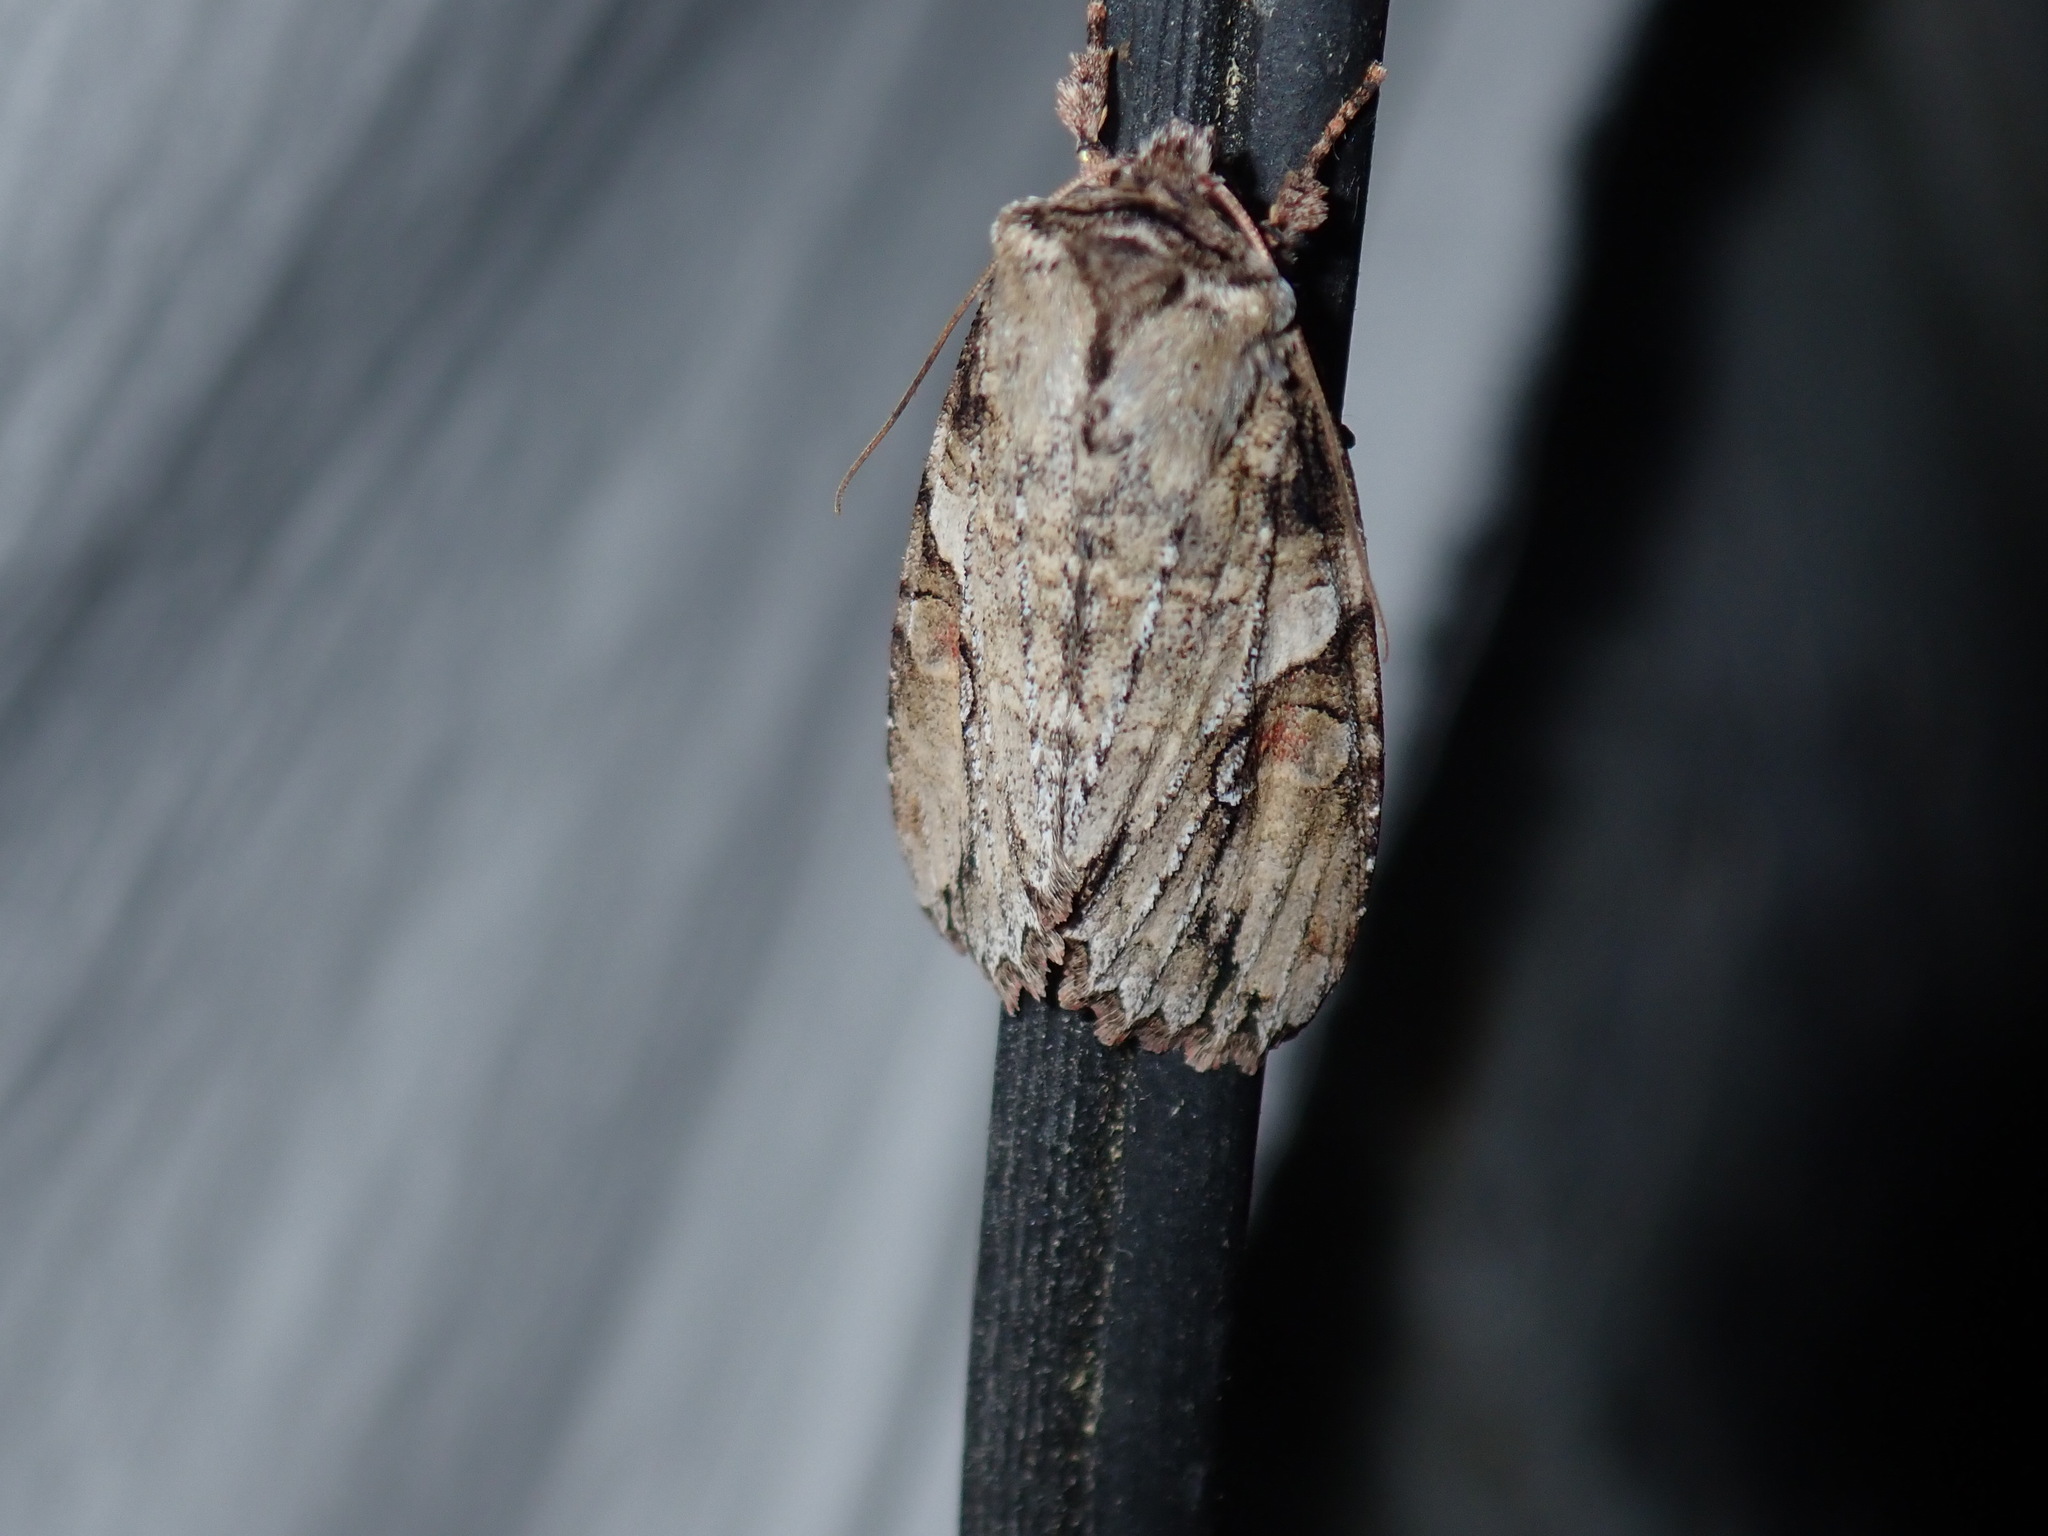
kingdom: Animalia
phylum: Arthropoda
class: Insecta
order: Lepidoptera
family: Noctuidae
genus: Achatia
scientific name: Achatia latex
